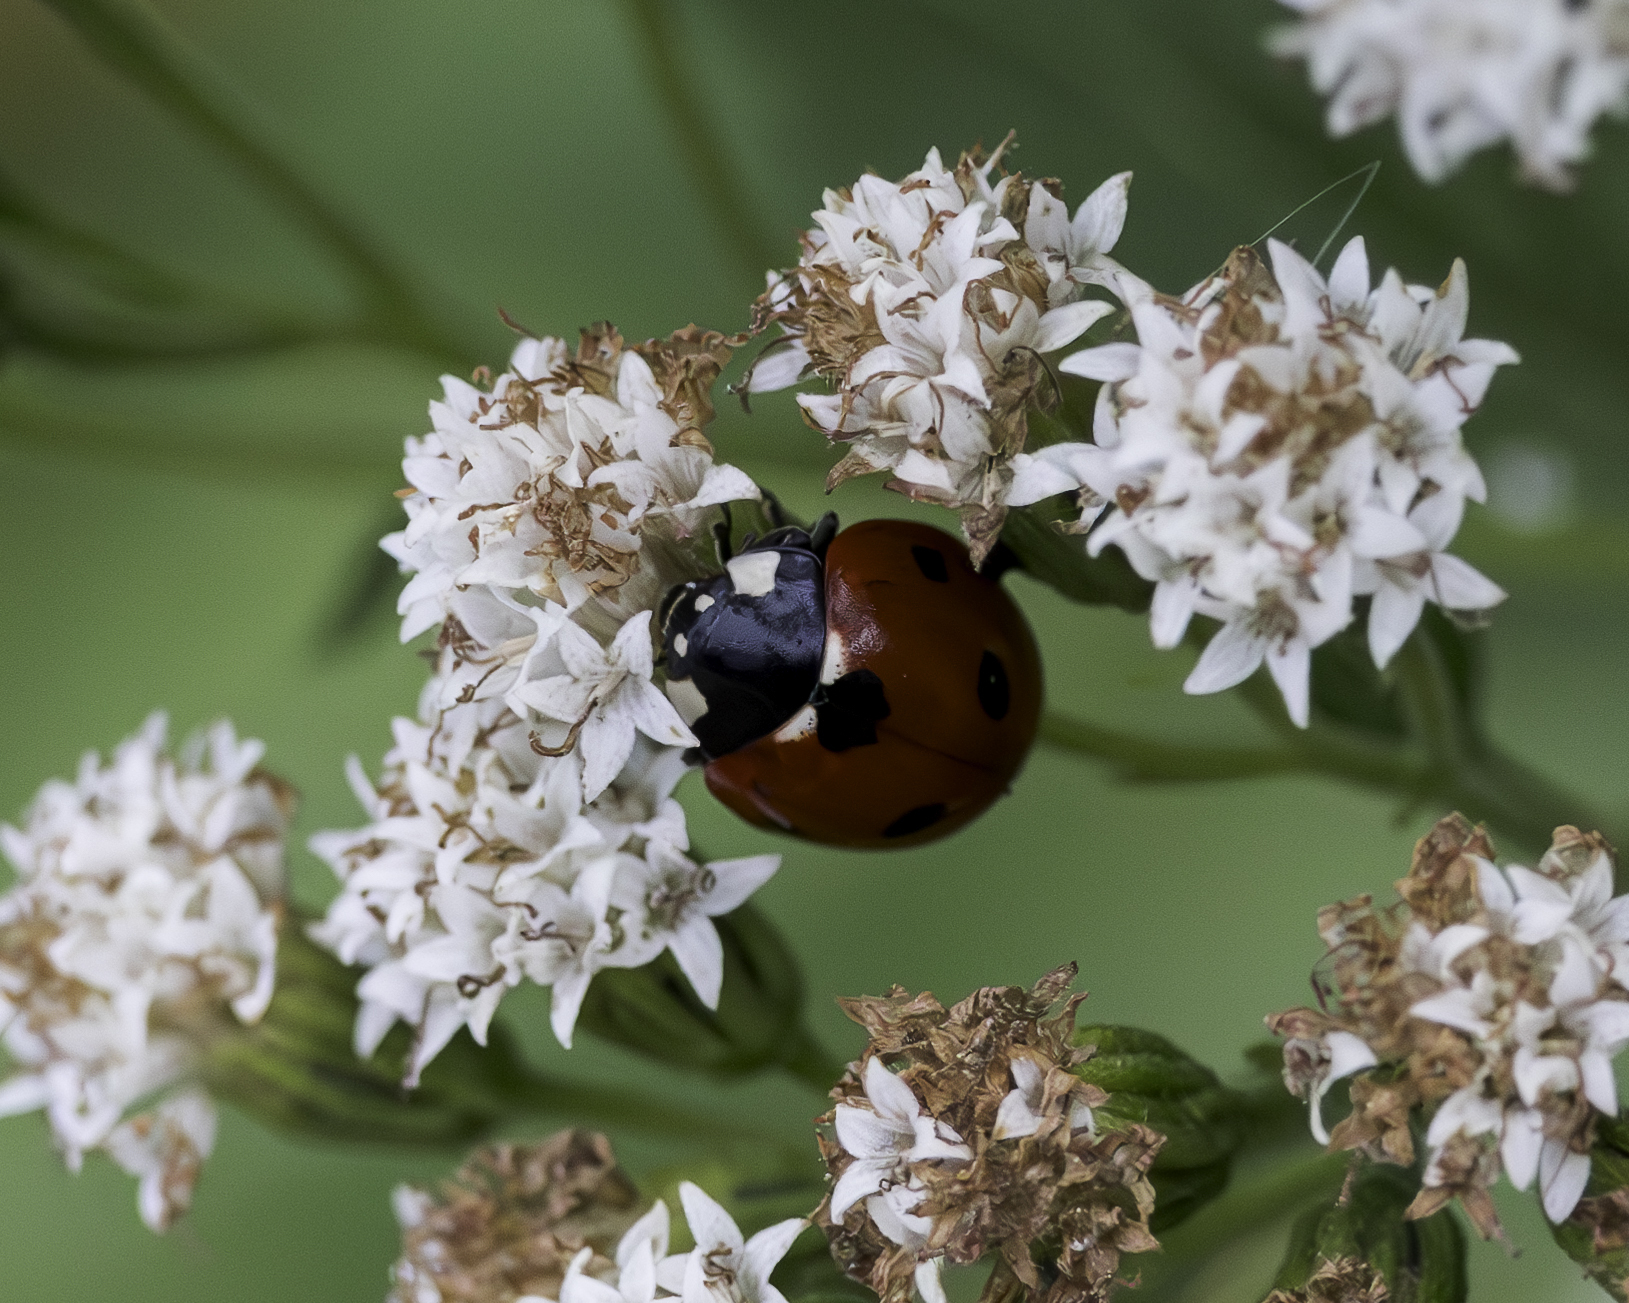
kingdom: Animalia
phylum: Arthropoda
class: Insecta
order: Coleoptera
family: Coccinellidae
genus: Coccinella
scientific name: Coccinella septempunctata
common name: Sevenspotted lady beetle
